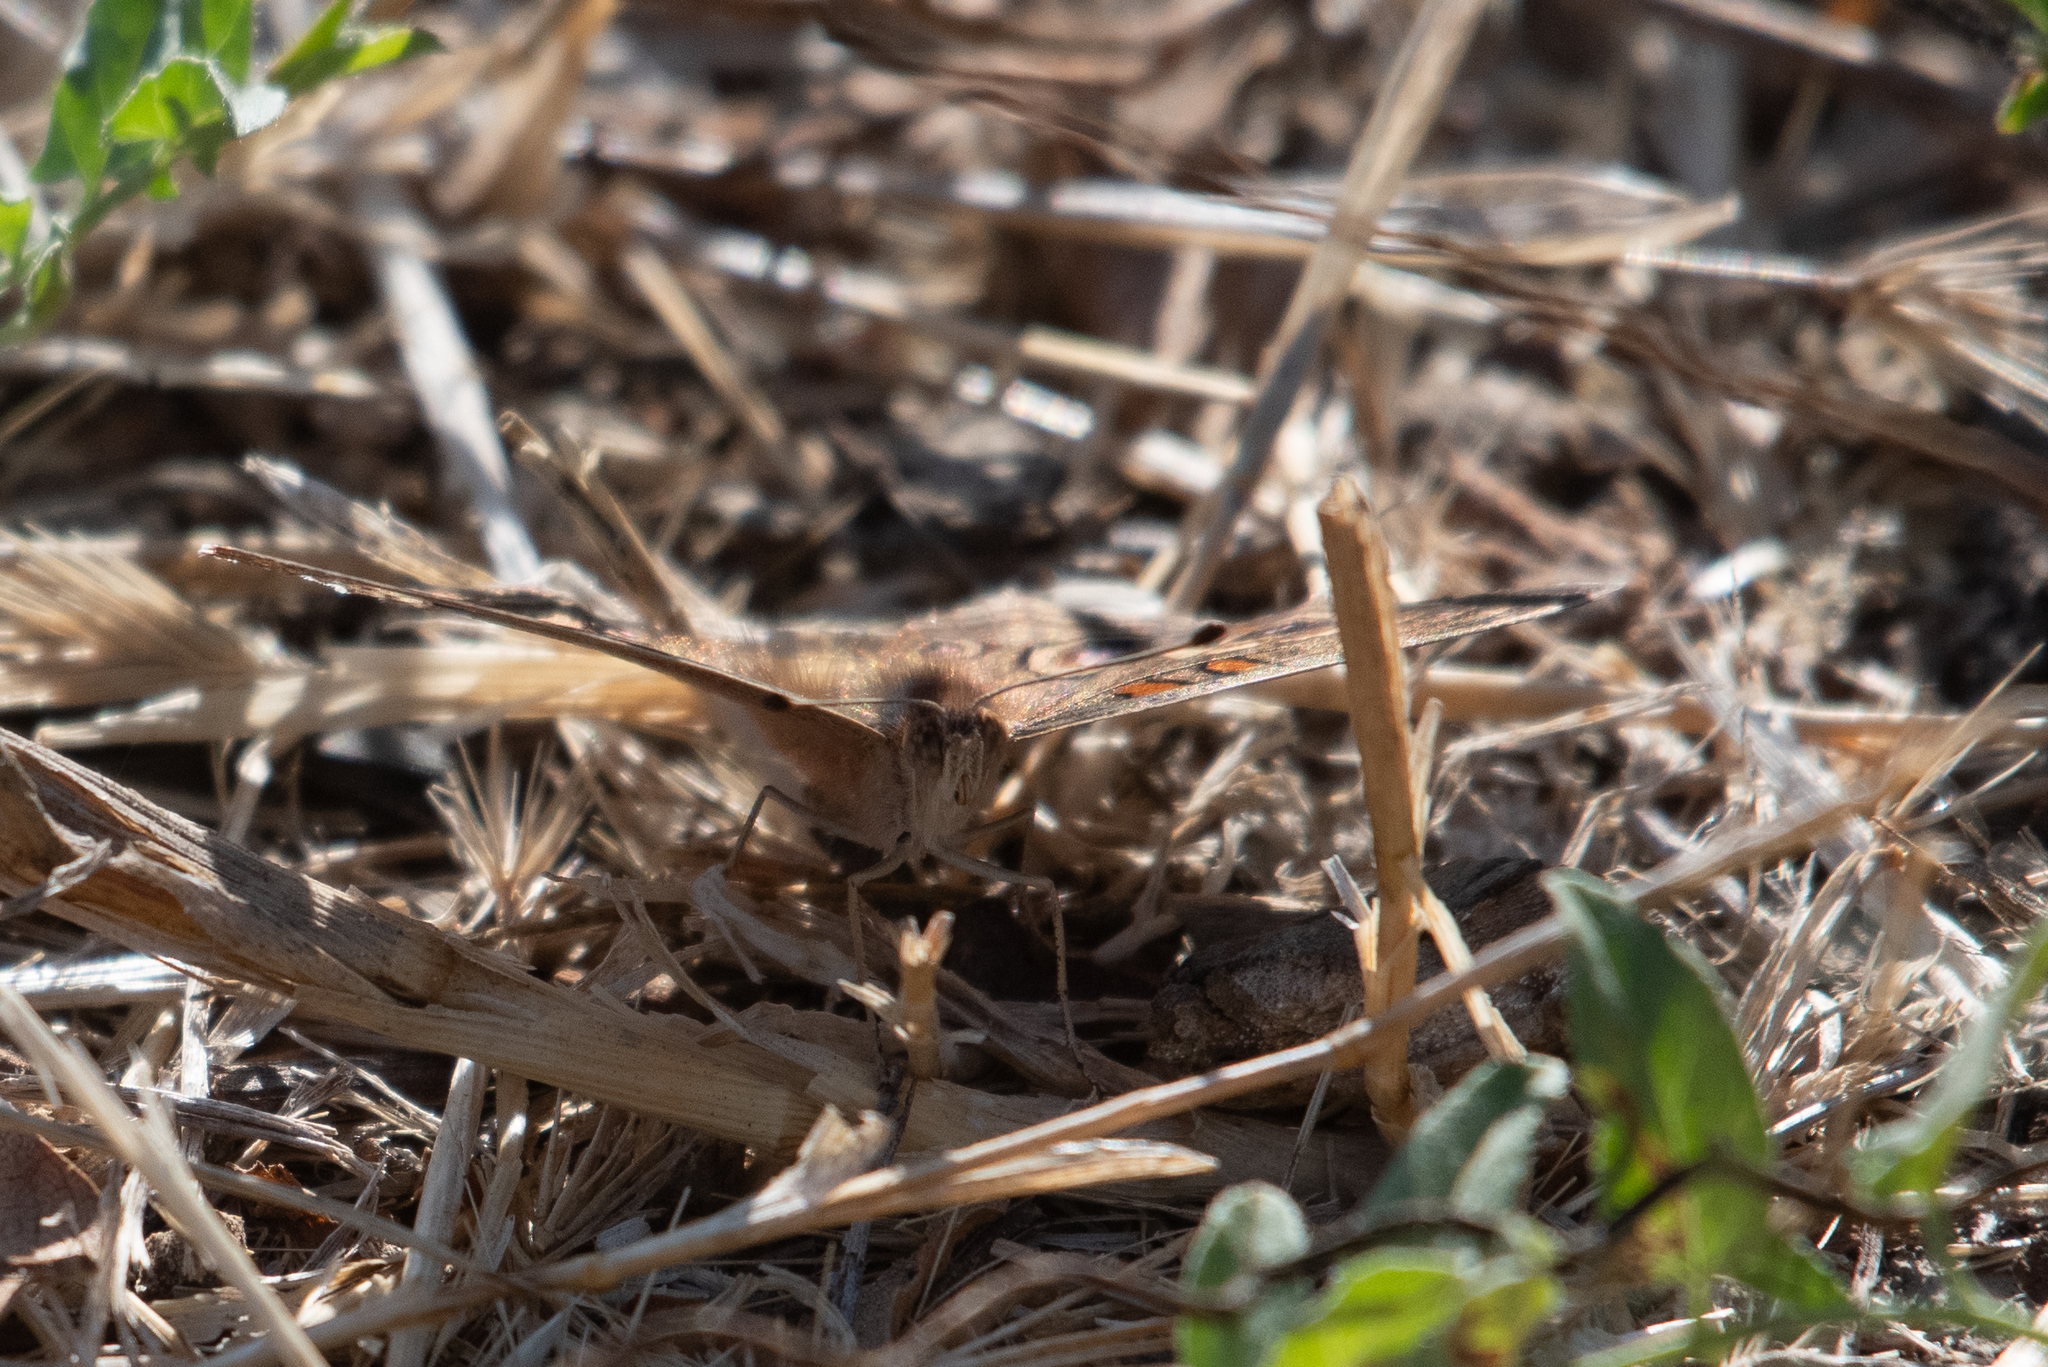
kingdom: Animalia
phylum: Arthropoda
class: Insecta
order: Lepidoptera
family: Nymphalidae
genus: Junonia
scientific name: Junonia grisea
